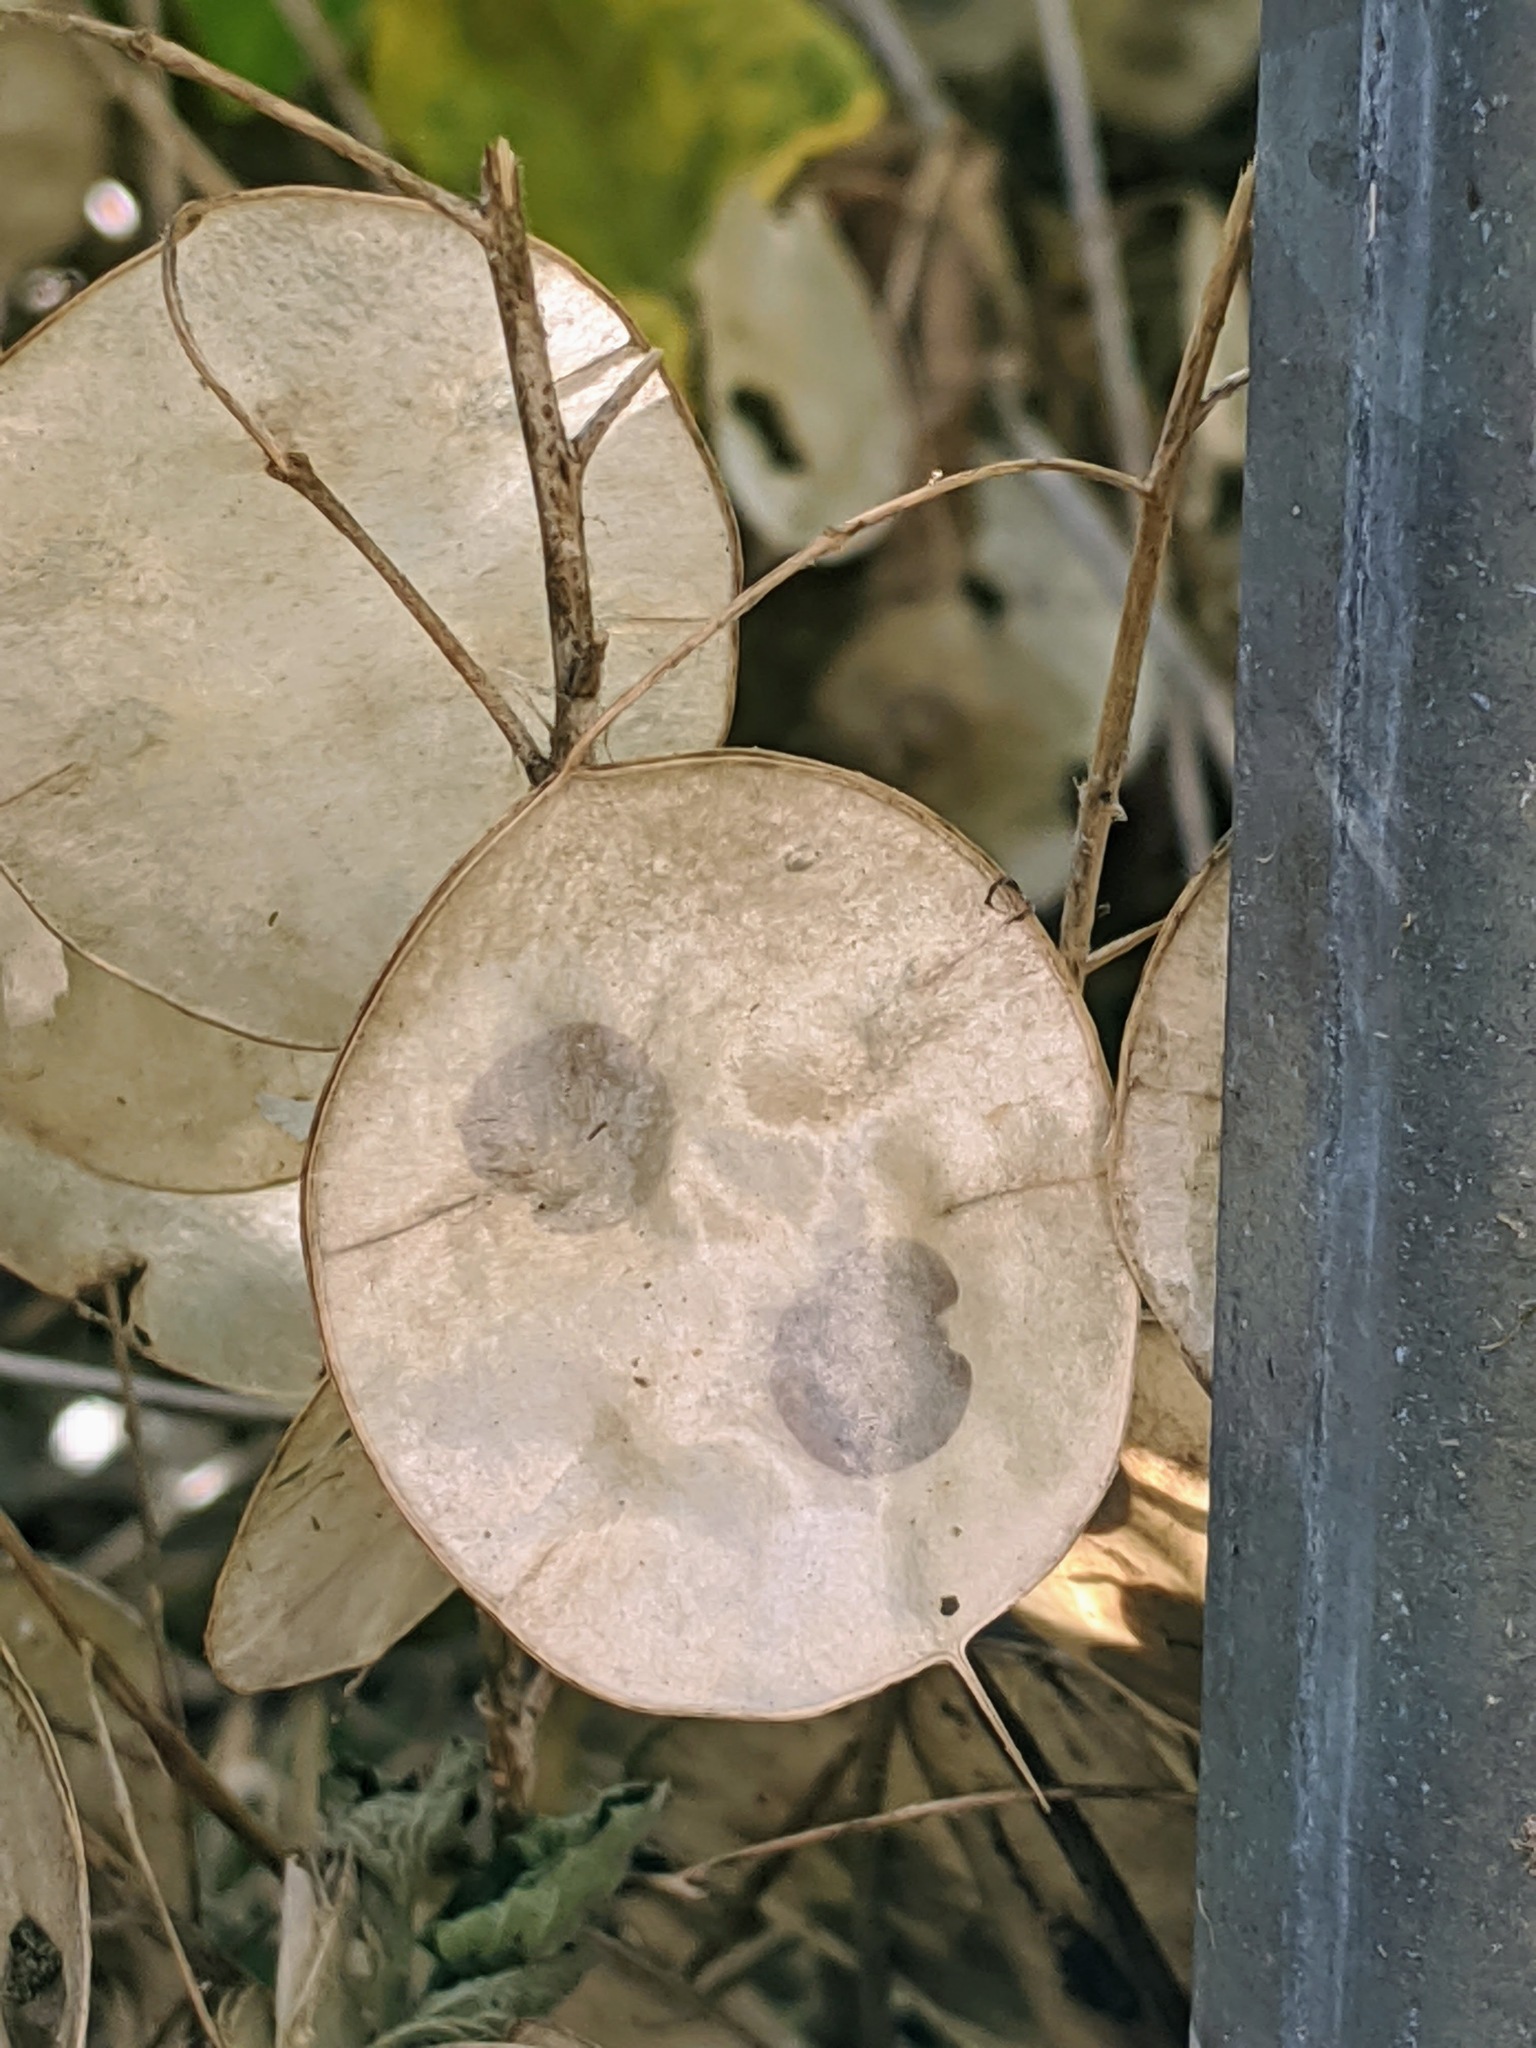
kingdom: Plantae
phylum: Tracheophyta
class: Magnoliopsida
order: Brassicales
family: Brassicaceae
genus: Lunaria
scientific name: Lunaria annua
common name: Honesty
